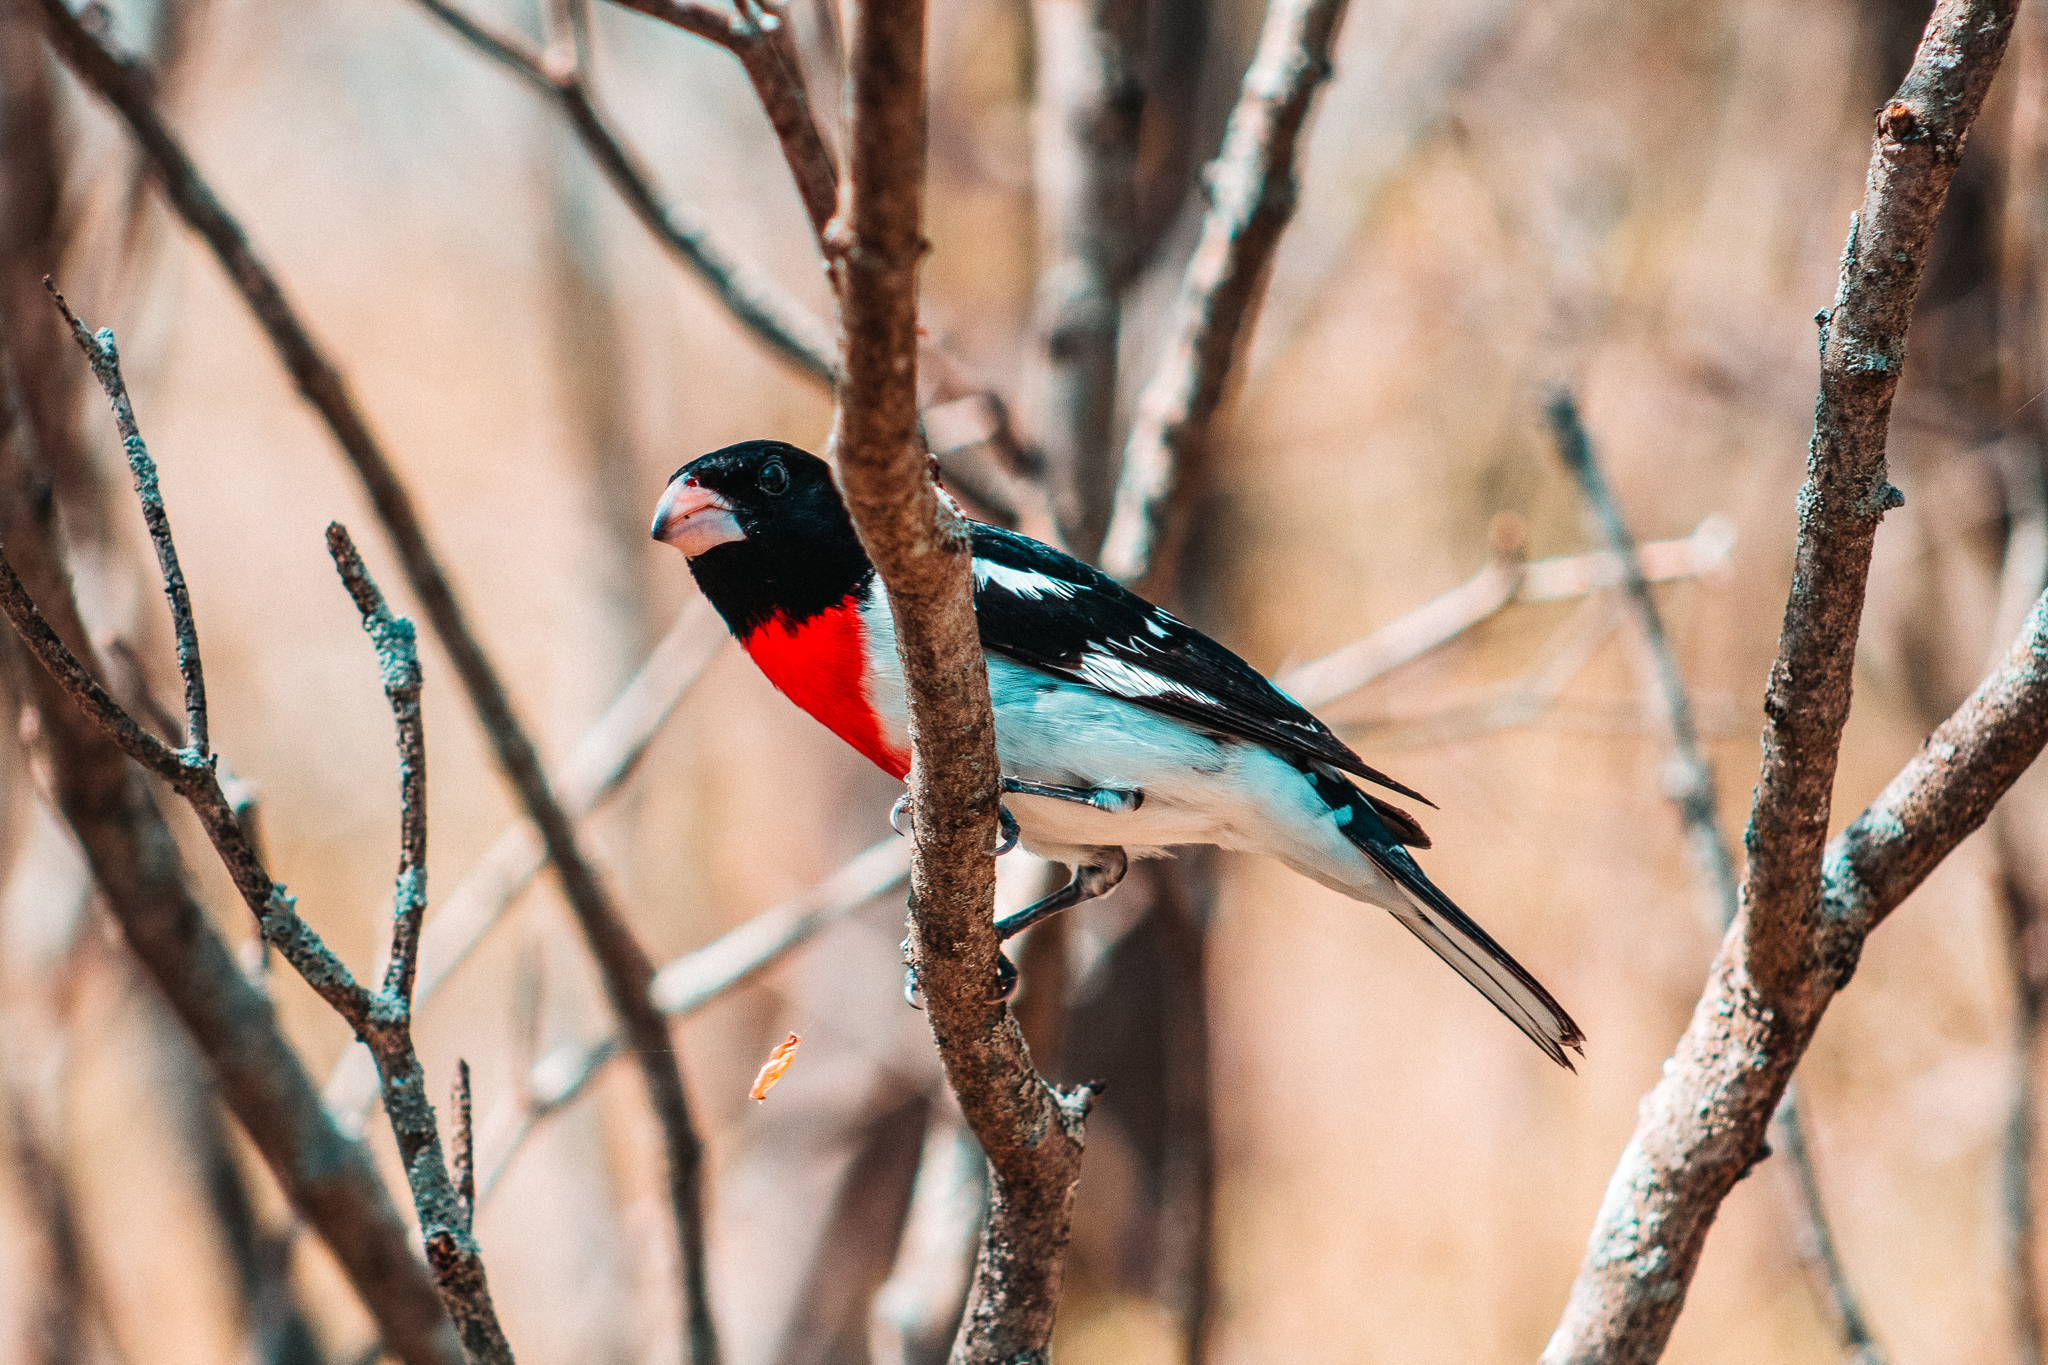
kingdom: Animalia
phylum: Chordata
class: Aves
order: Passeriformes
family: Cardinalidae
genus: Pheucticus
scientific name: Pheucticus ludovicianus
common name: Rose-breasted grosbeak
